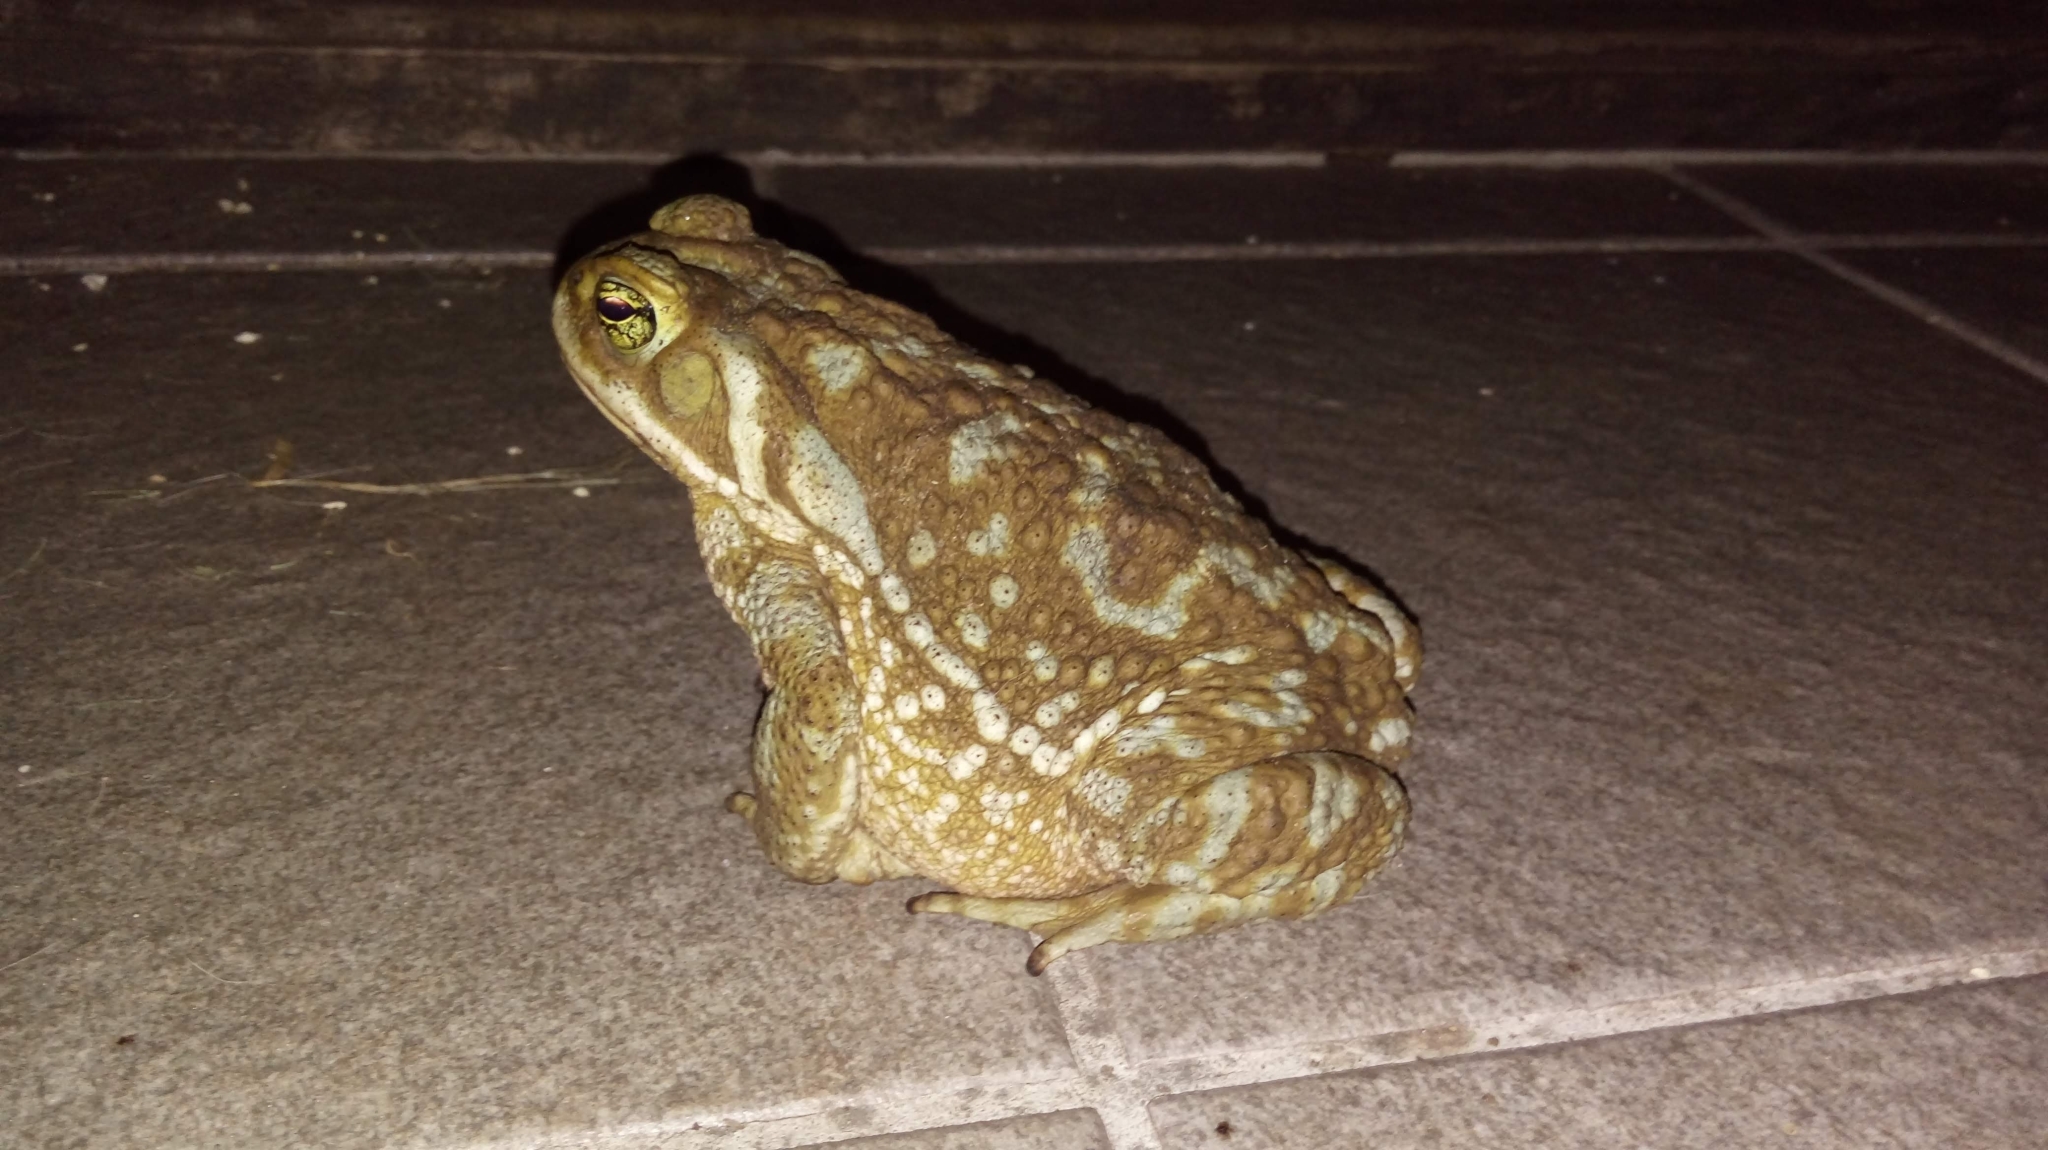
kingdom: Animalia
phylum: Chordata
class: Amphibia
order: Anura
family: Bufonidae
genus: Rhinella
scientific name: Rhinella arenarum
